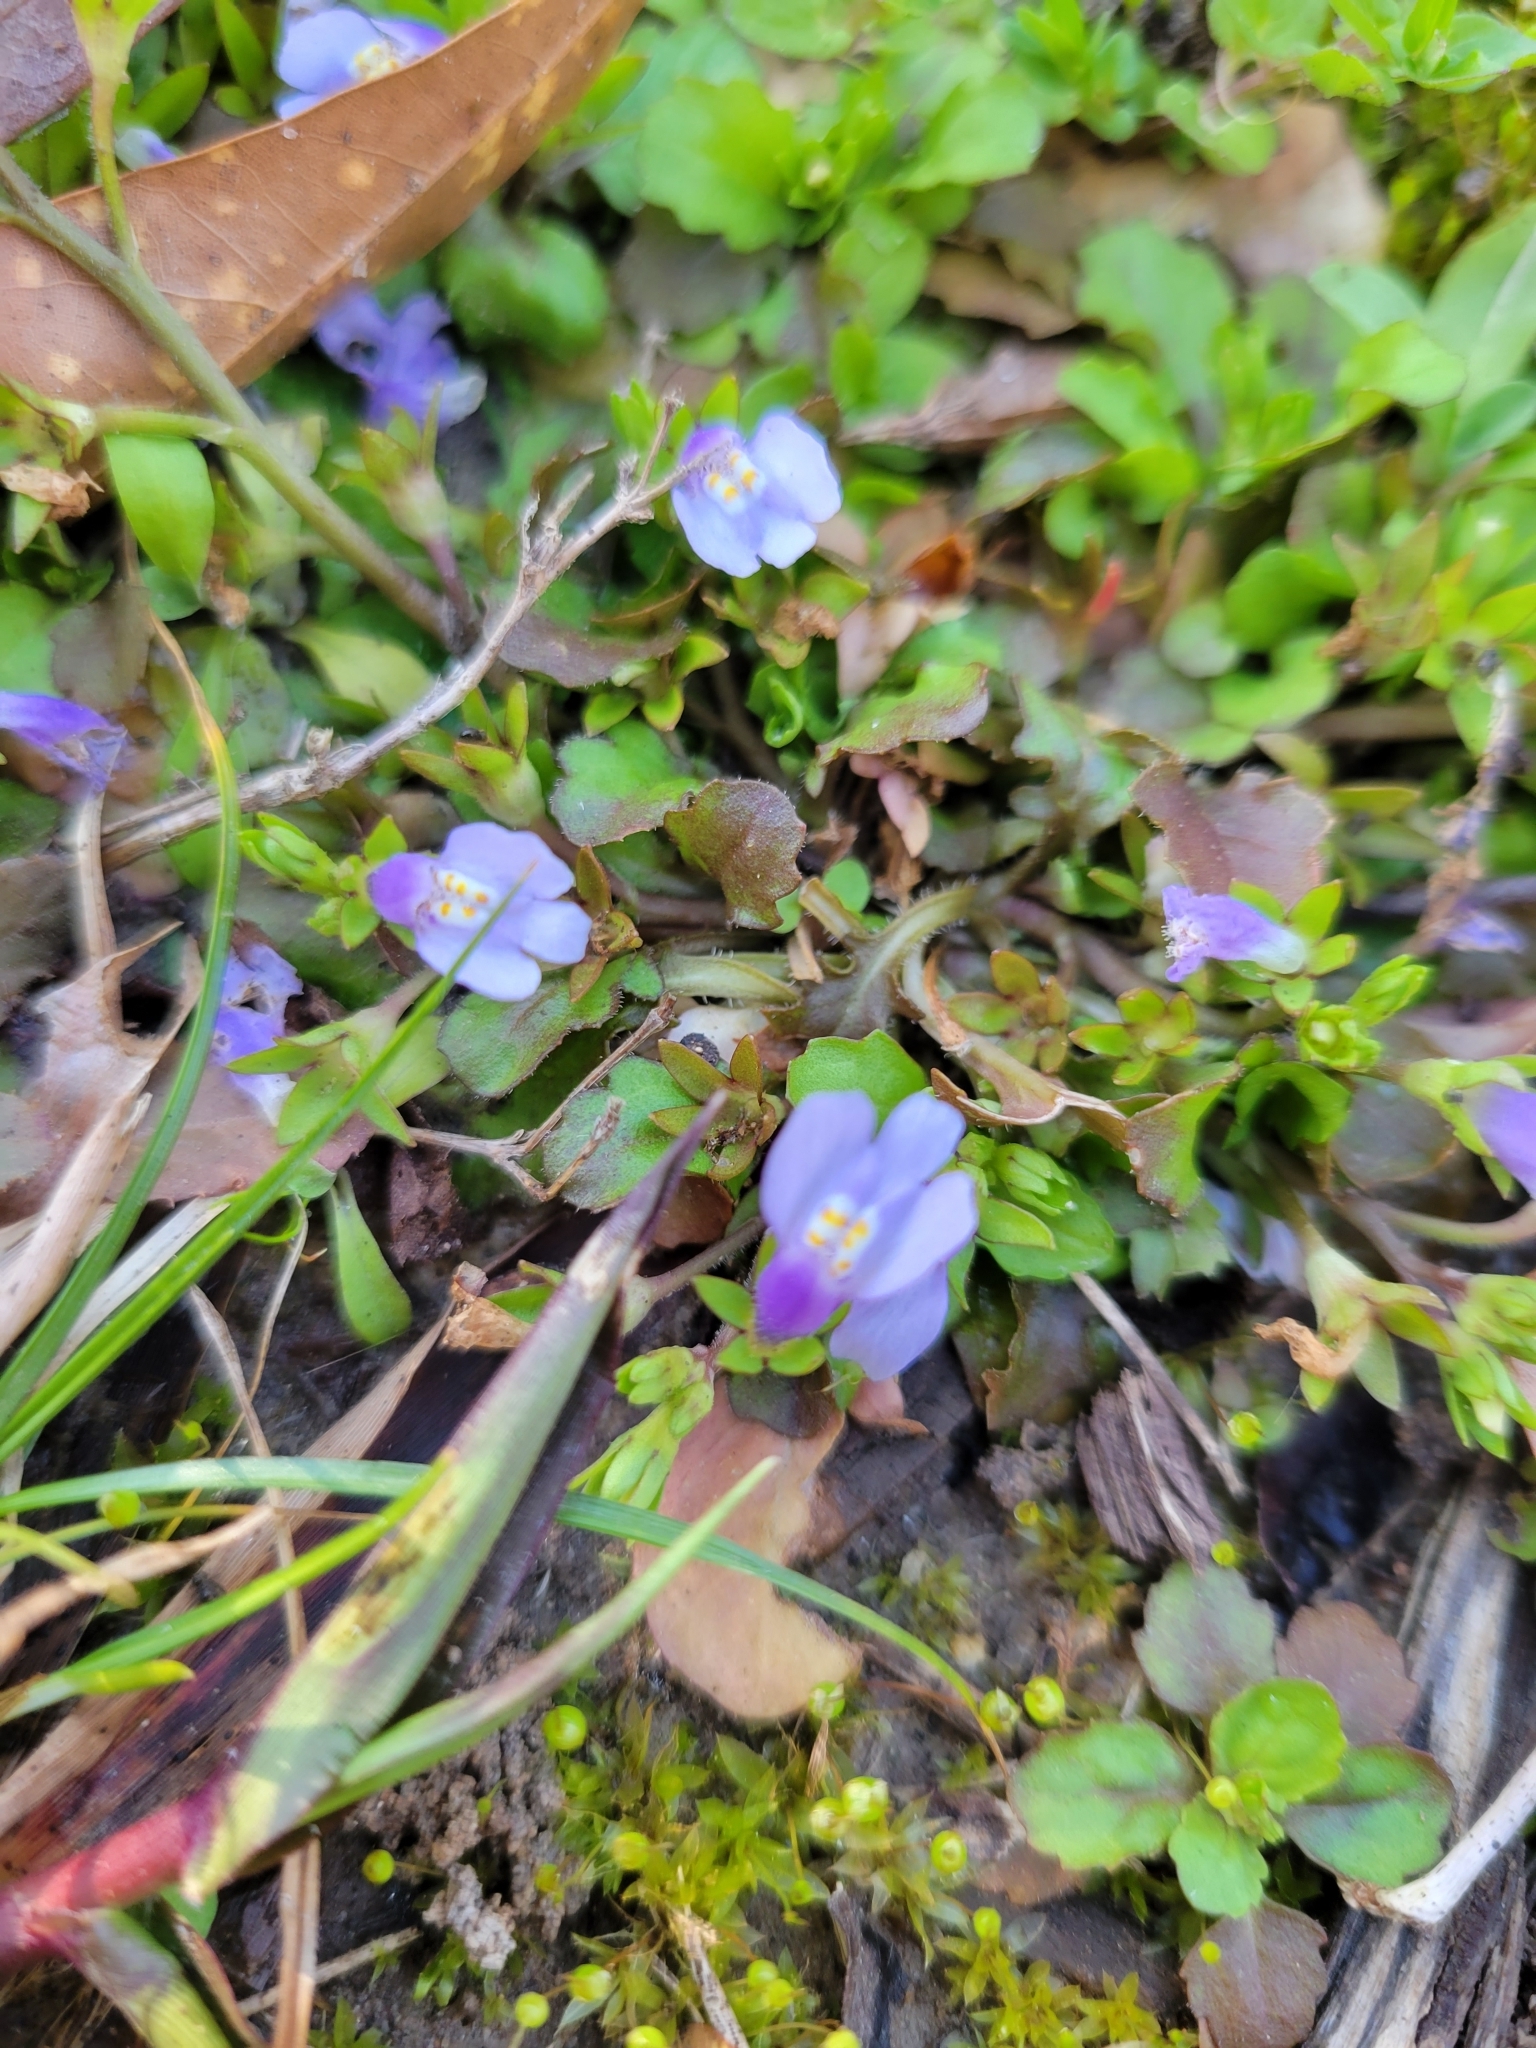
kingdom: Plantae
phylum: Tracheophyta
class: Magnoliopsida
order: Lamiales
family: Mazaceae
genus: Mazus
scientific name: Mazus pumilus
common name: Japanese mazus
